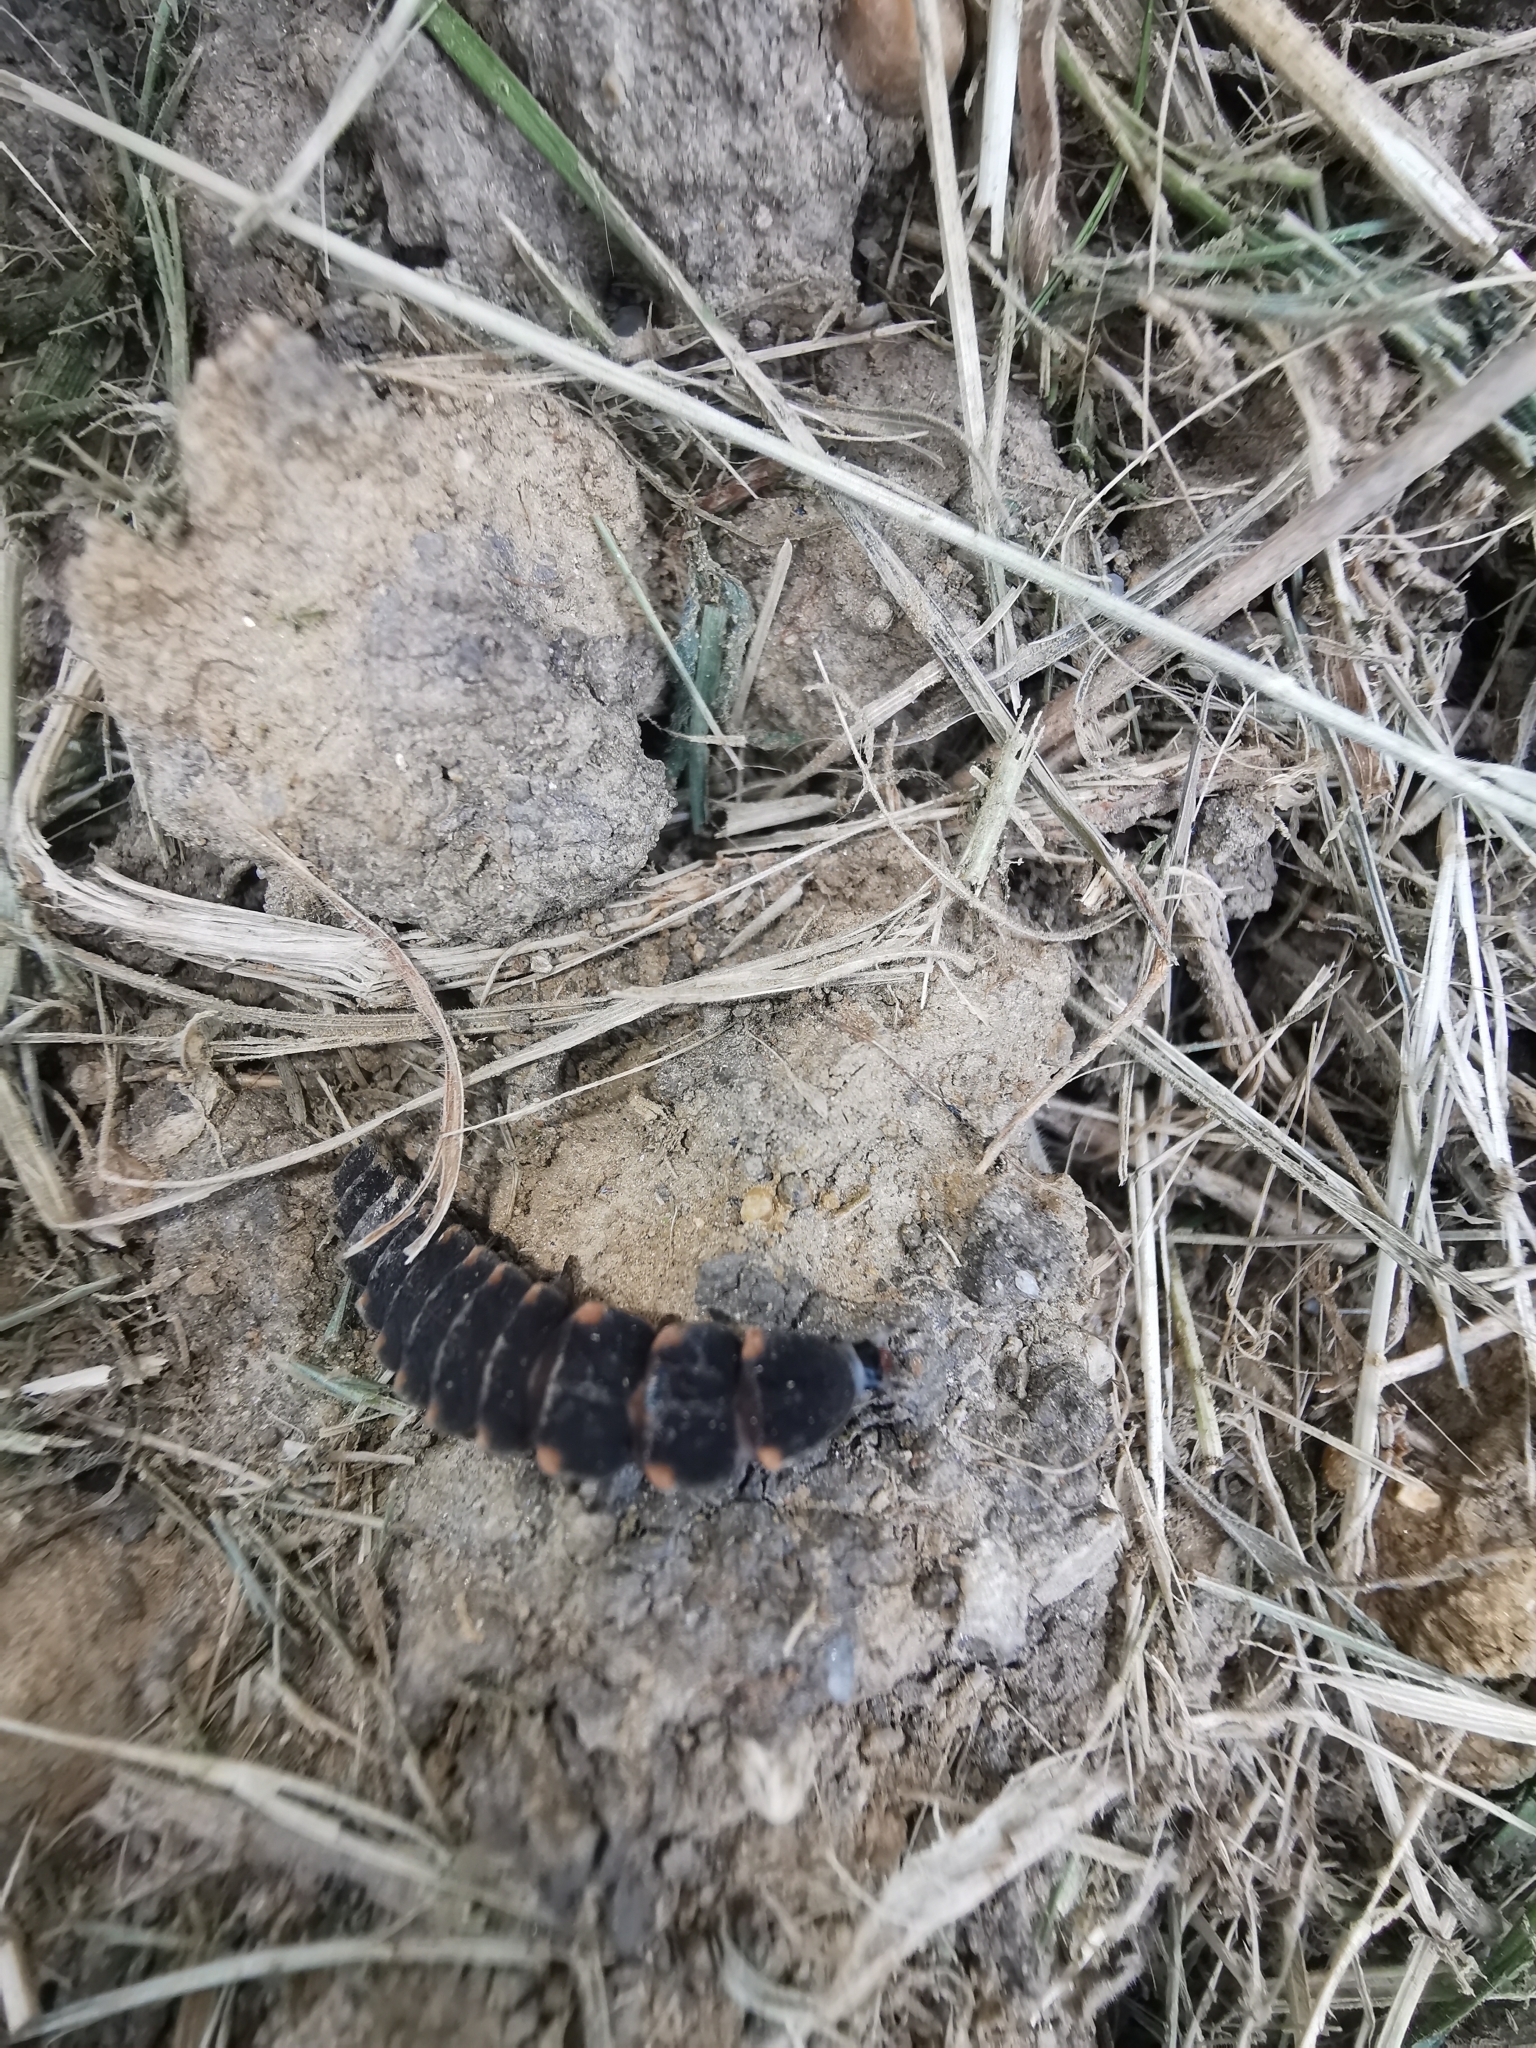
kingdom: Animalia
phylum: Arthropoda
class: Insecta
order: Coleoptera
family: Lampyridae
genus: Lampyris
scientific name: Lampyris noctiluca
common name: Glow-worm
